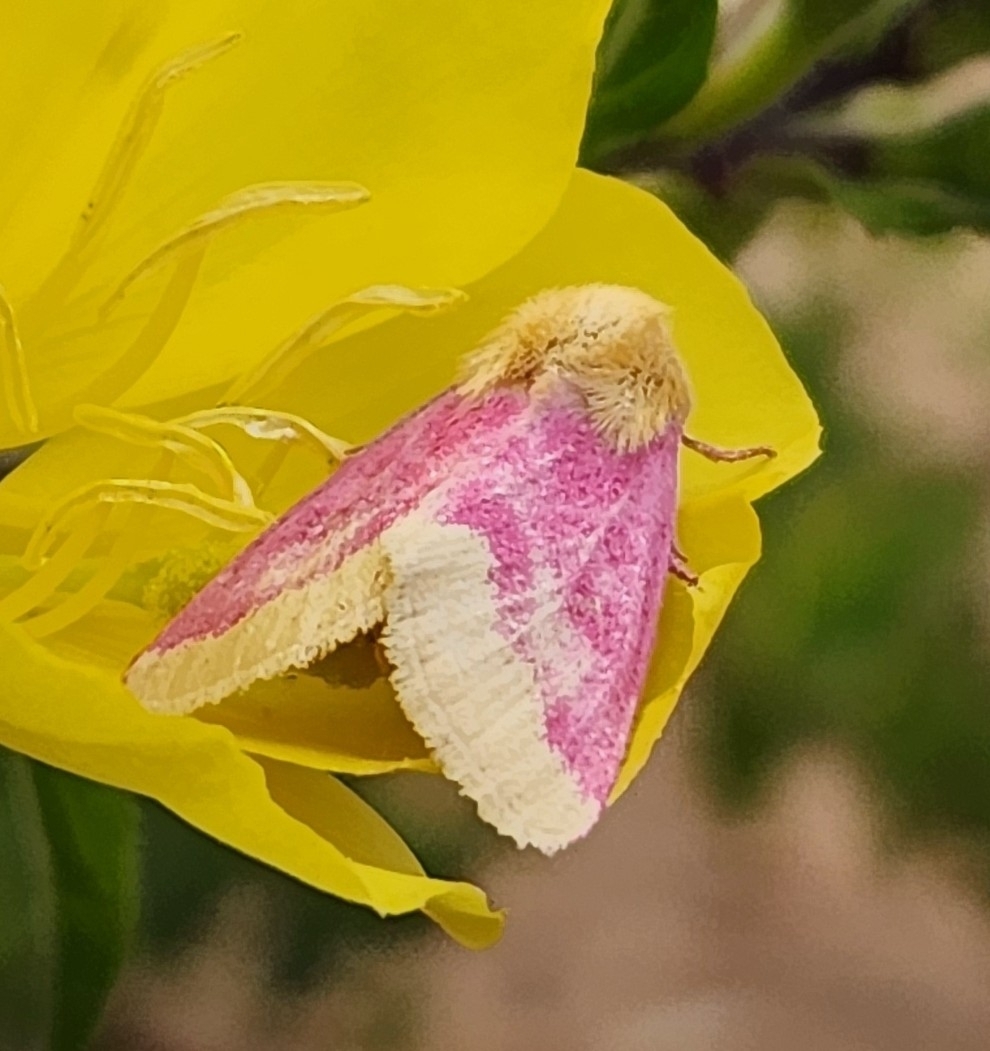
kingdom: Animalia
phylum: Arthropoda
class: Insecta
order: Lepidoptera
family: Noctuidae
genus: Schinia
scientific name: Schinia florida
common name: Primrose moth
